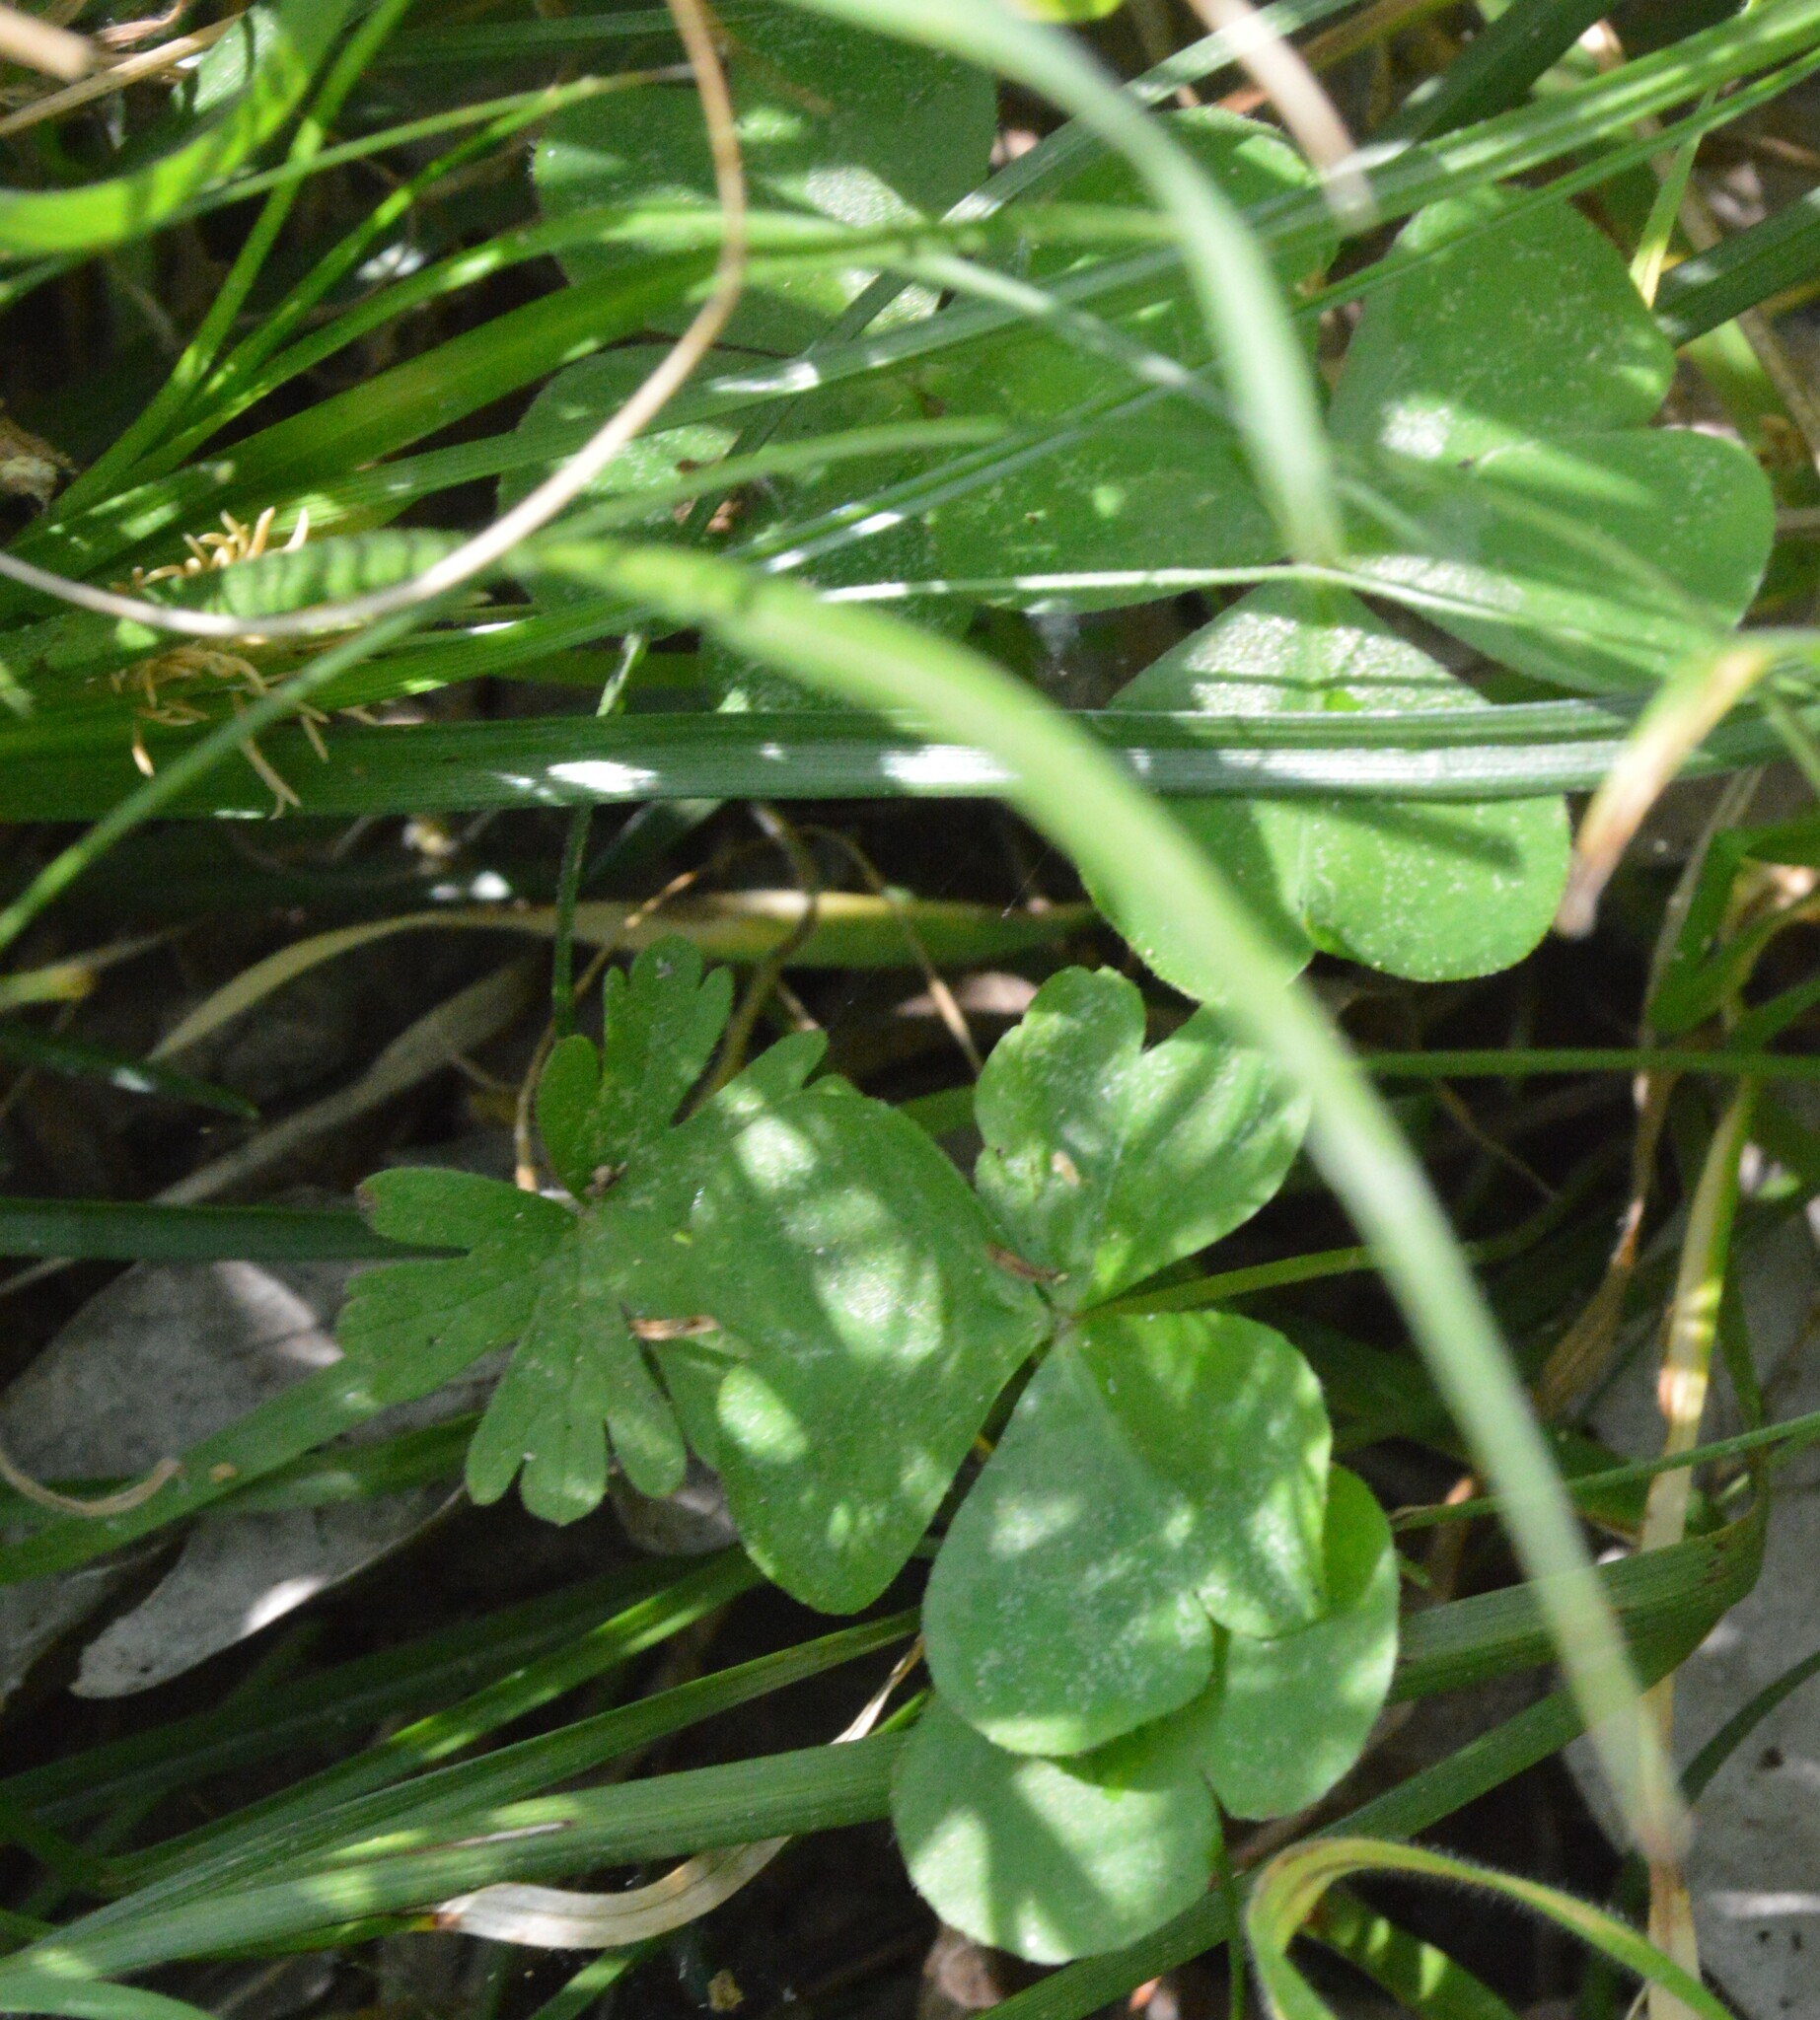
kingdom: Plantae
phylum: Tracheophyta
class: Magnoliopsida
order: Oxalidales
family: Oxalidaceae
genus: Oxalis
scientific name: Oxalis debilis
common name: Large-flowered pink-sorrel
